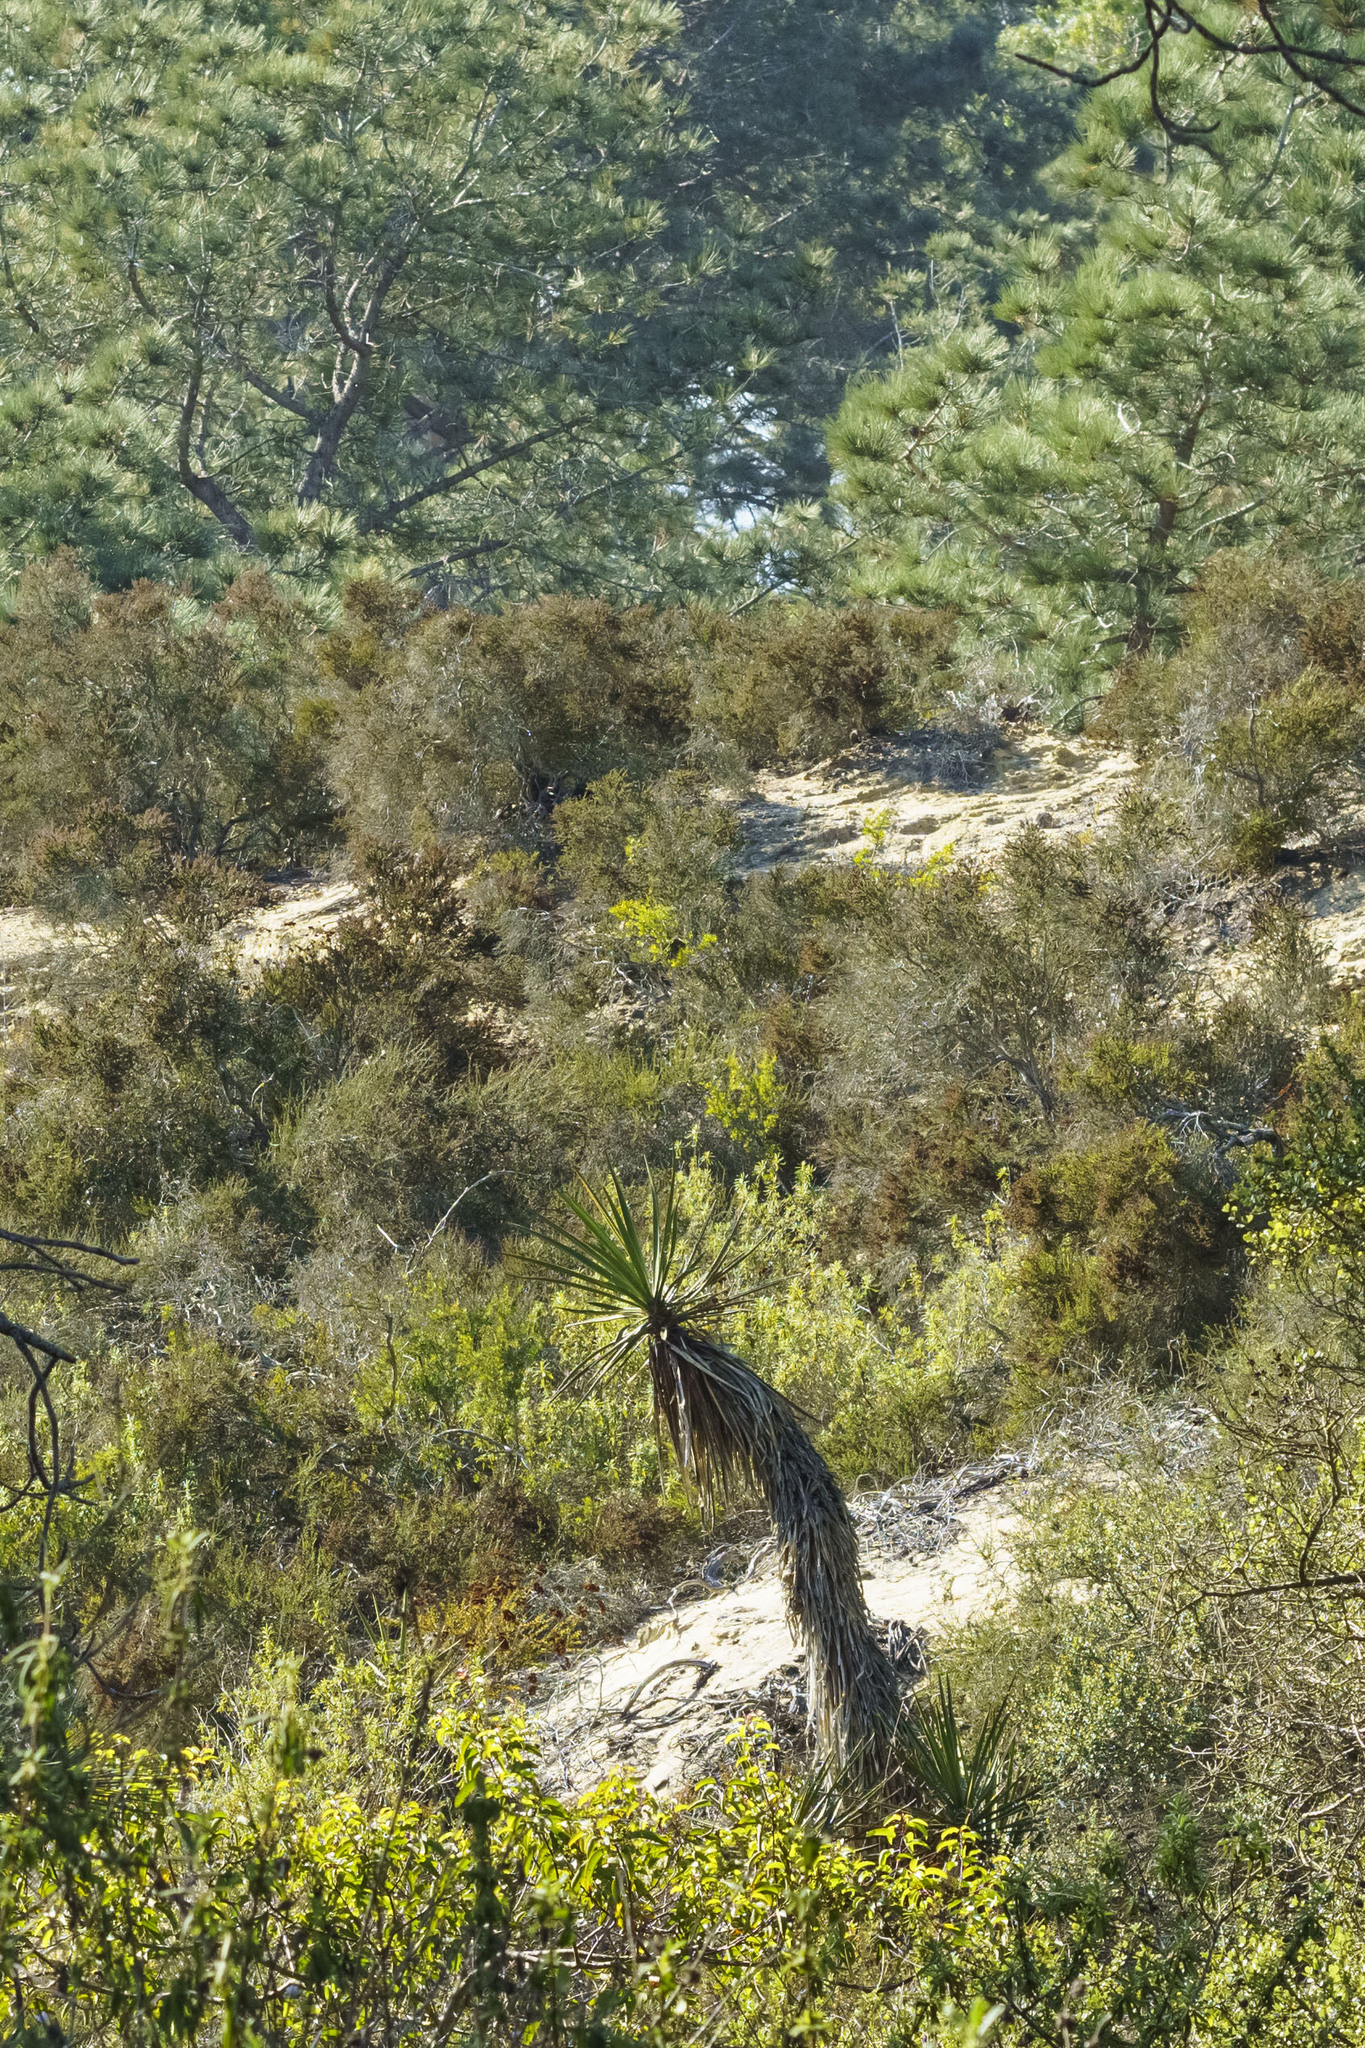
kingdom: Plantae
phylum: Tracheophyta
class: Liliopsida
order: Asparagales
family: Asparagaceae
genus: Yucca
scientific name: Yucca schidigera
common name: Mojave yucca
